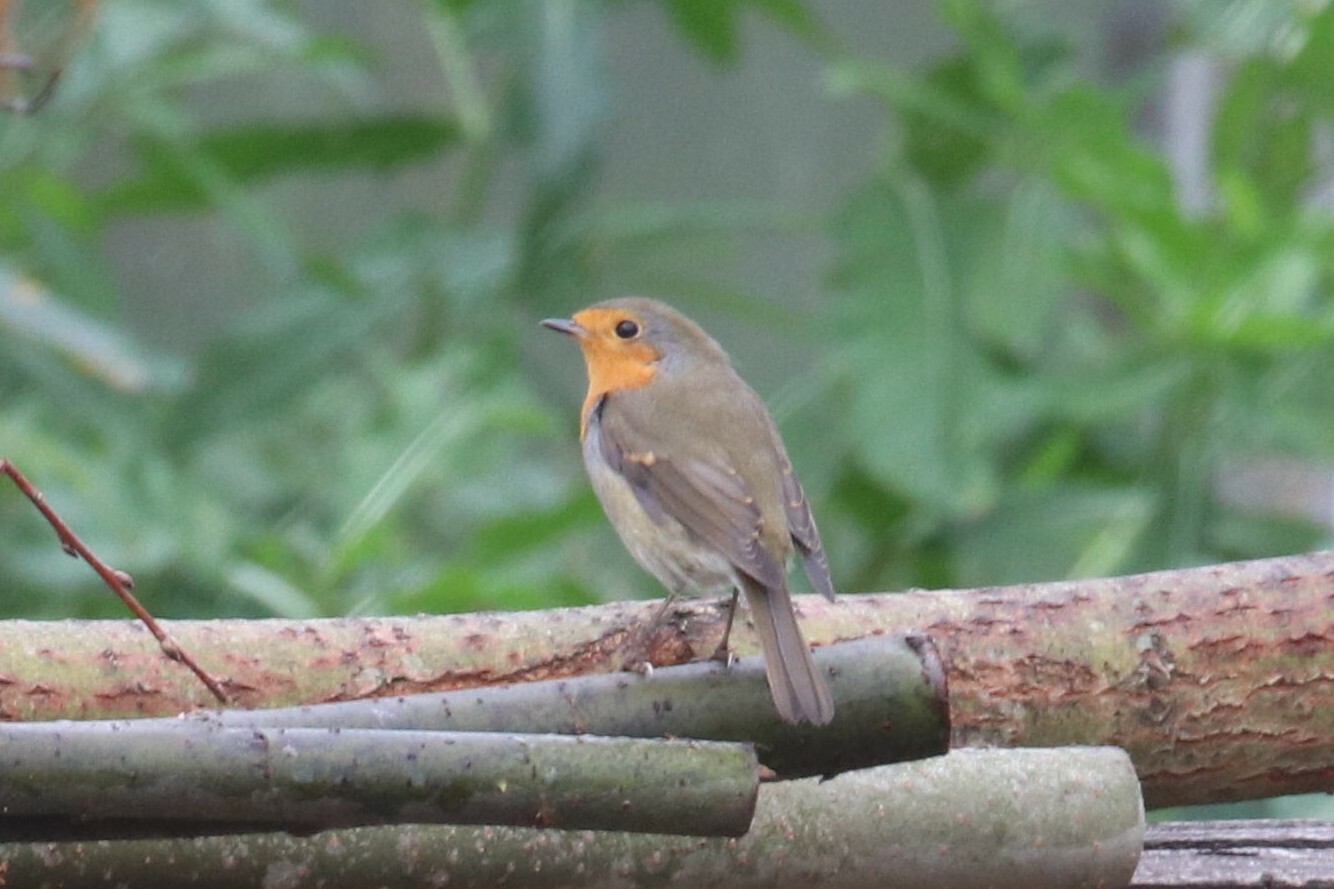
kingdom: Animalia
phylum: Chordata
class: Aves
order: Passeriformes
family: Muscicapidae
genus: Erithacus
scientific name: Erithacus rubecula
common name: European robin
